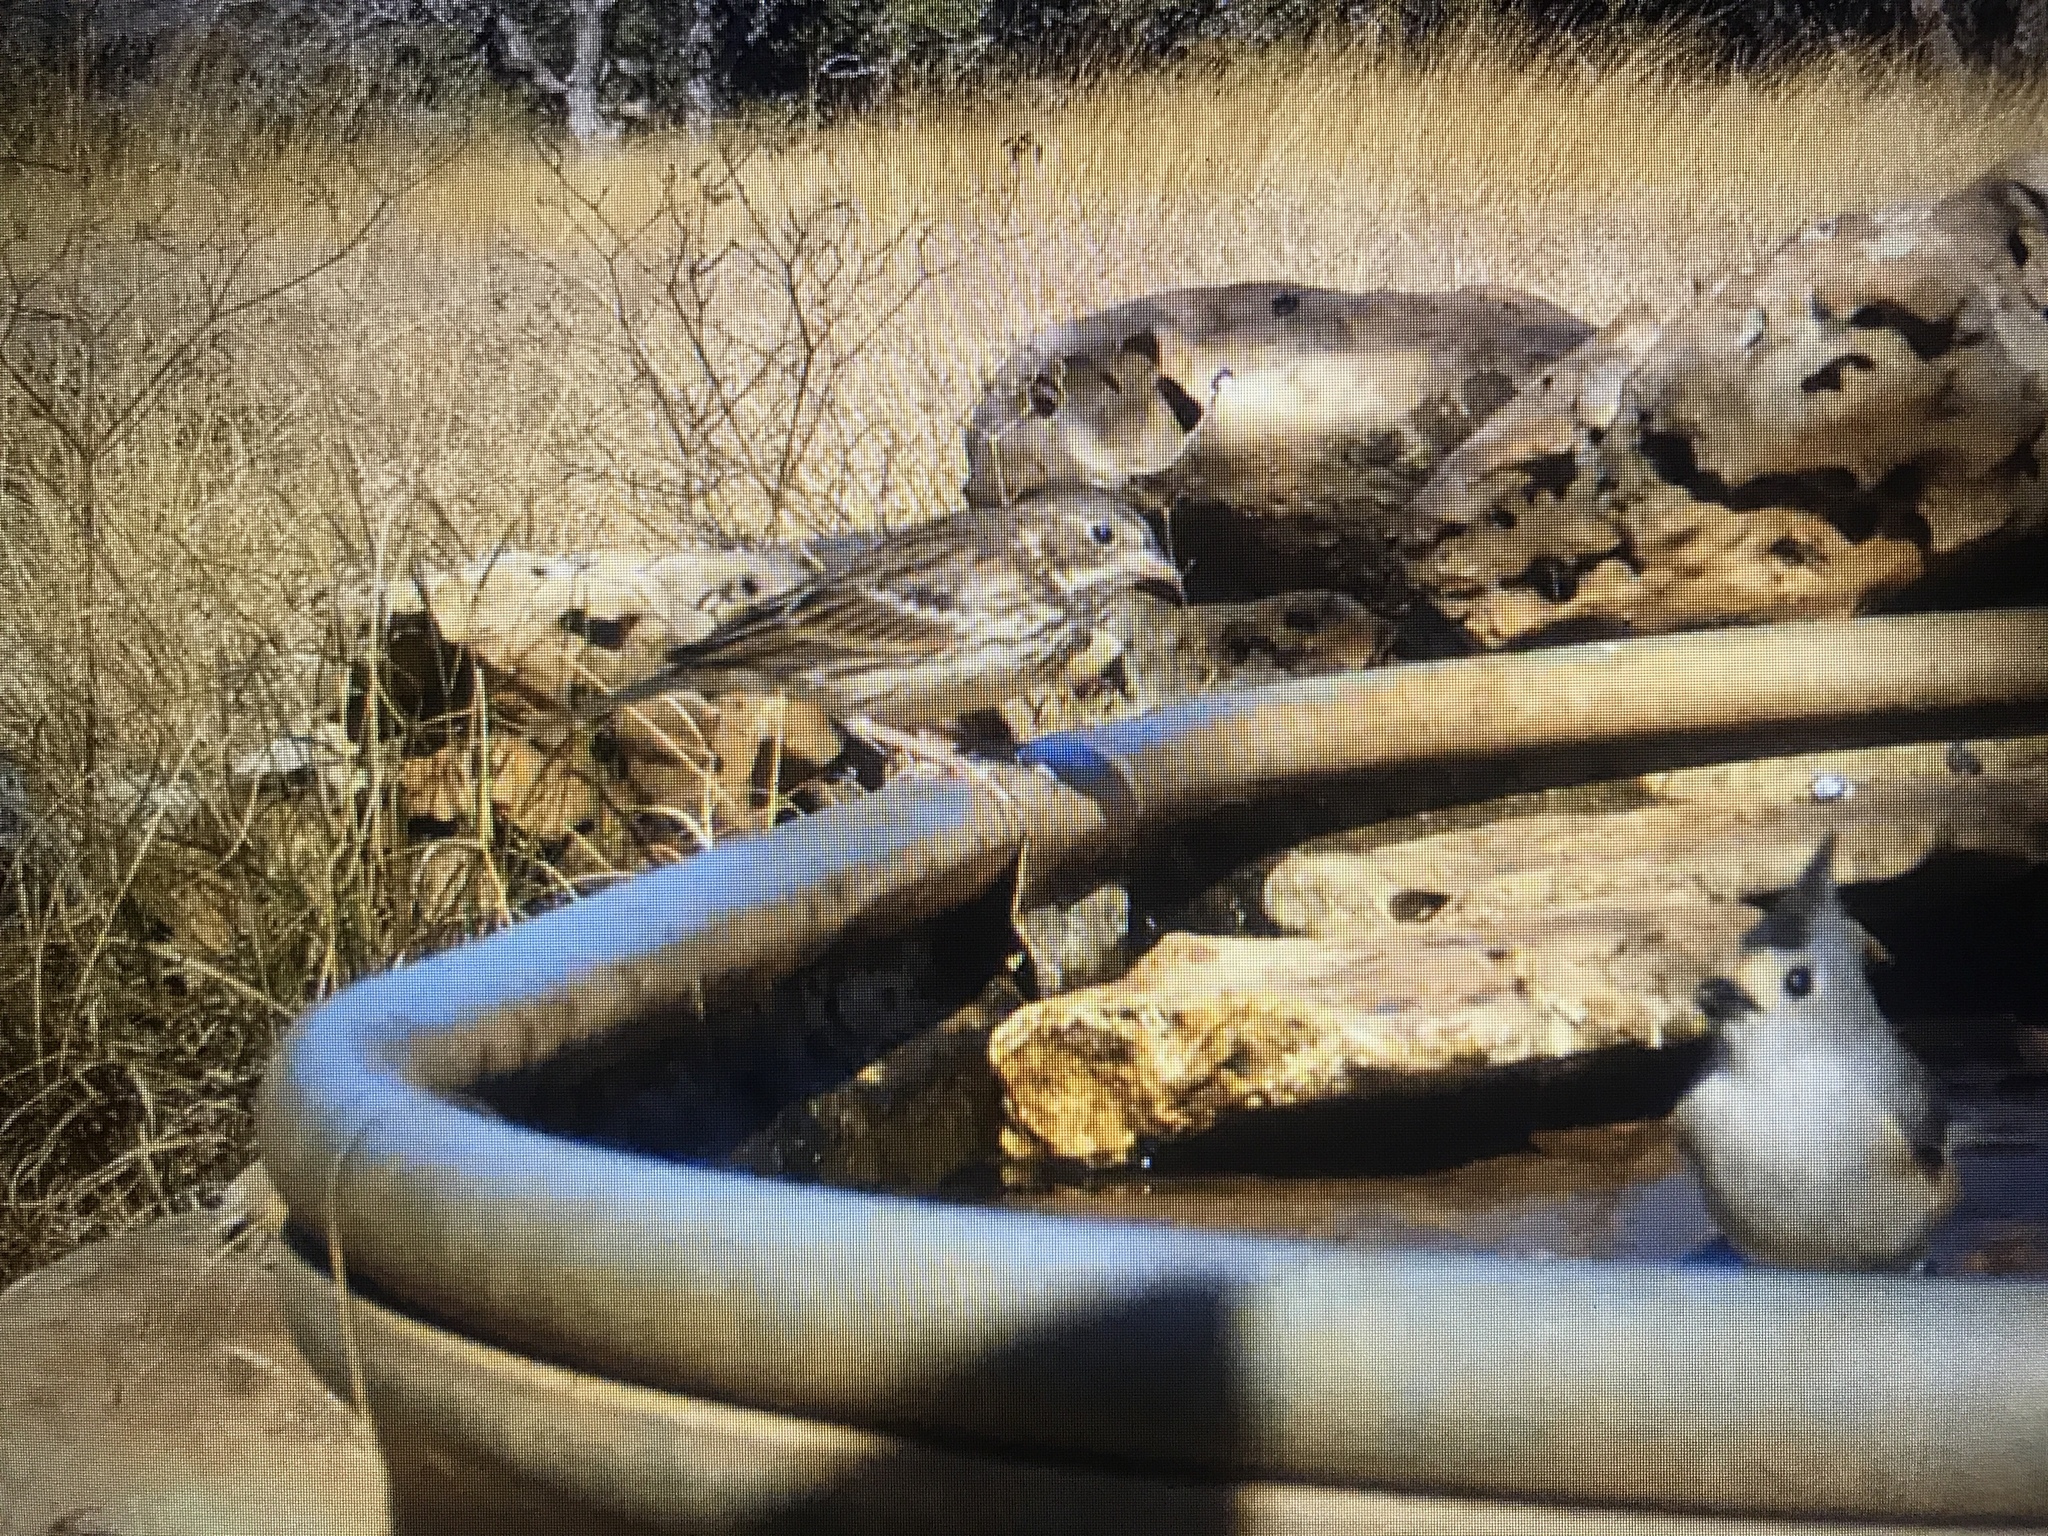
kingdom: Animalia
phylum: Chordata
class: Aves
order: Passeriformes
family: Passerellidae
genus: Pooecetes
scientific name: Pooecetes gramineus
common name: Vesper sparrow
